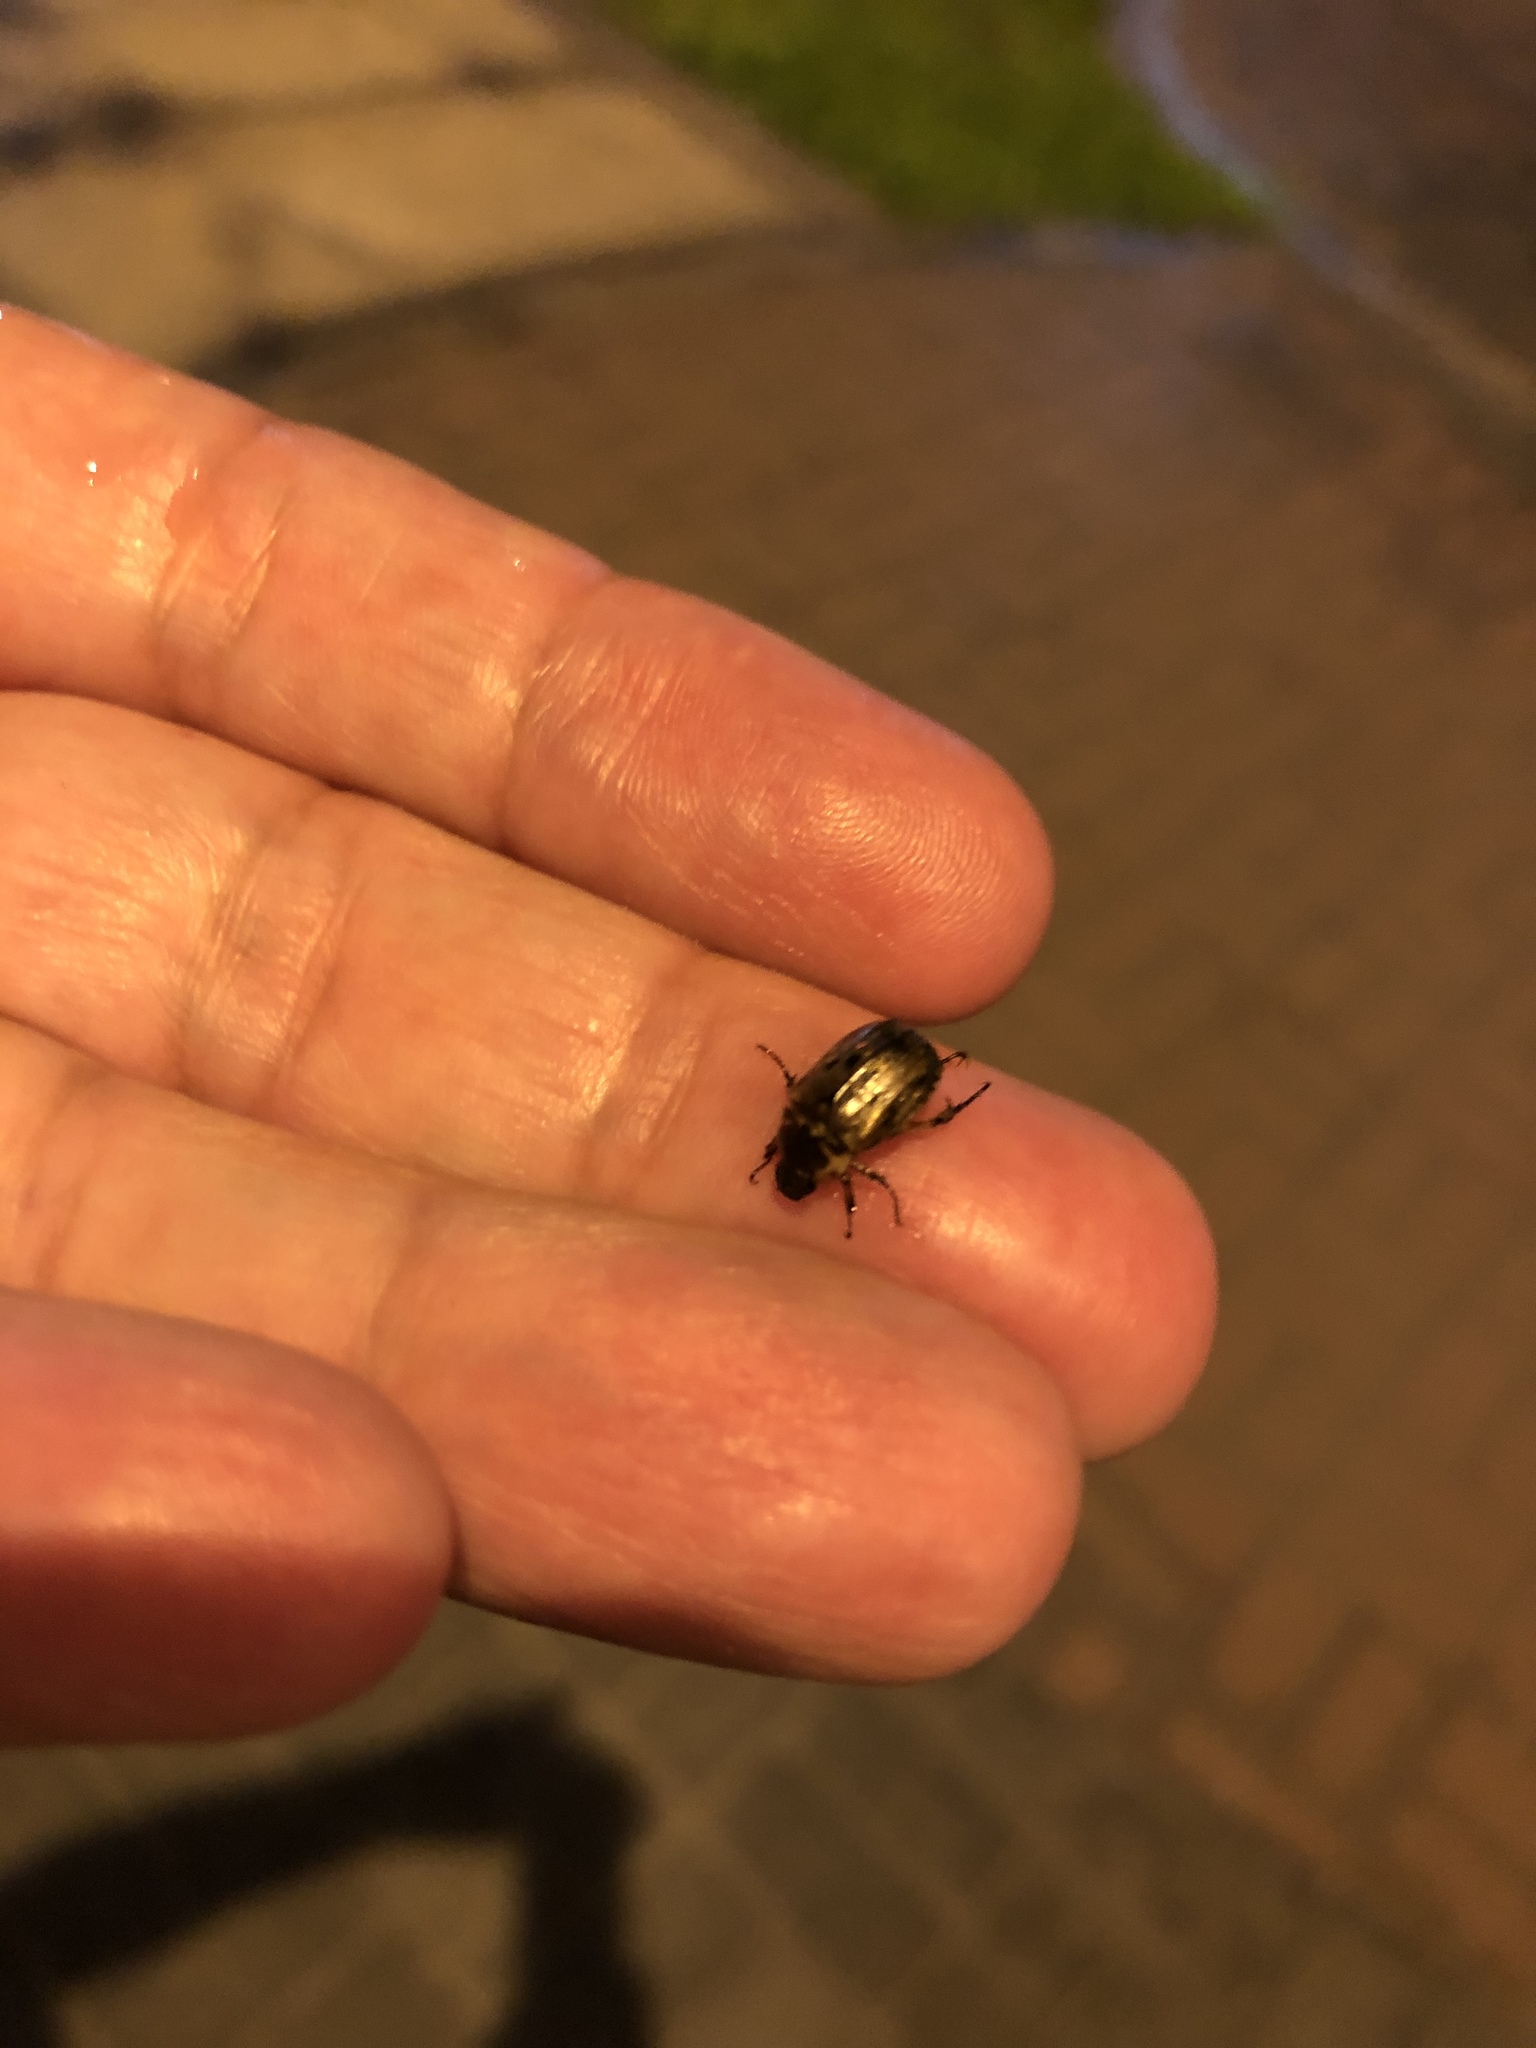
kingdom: Animalia
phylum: Arthropoda
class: Insecta
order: Coleoptera
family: Scarabaeidae
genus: Paranomala
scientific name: Paranomala undulata
